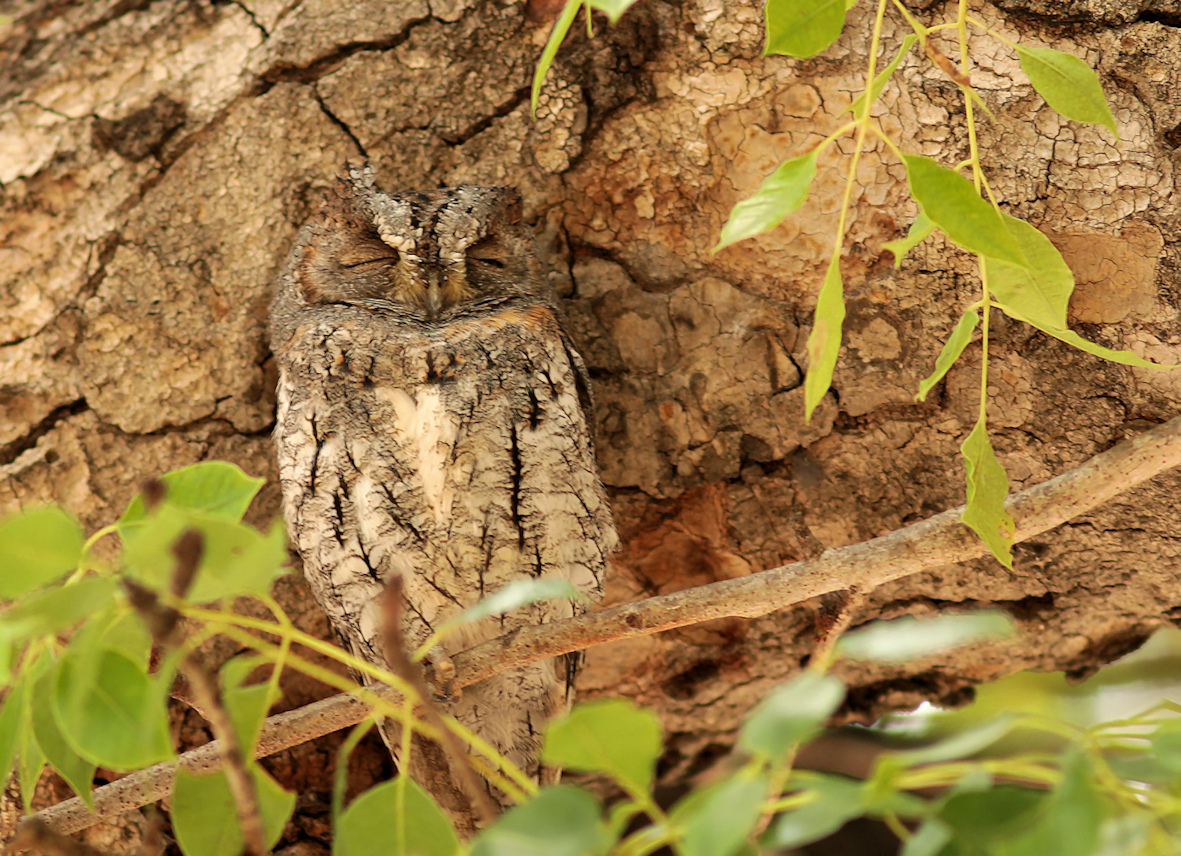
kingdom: Animalia
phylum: Chordata
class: Aves
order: Strigiformes
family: Strigidae
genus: Otus
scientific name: Otus senegalensis
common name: African scops owl
